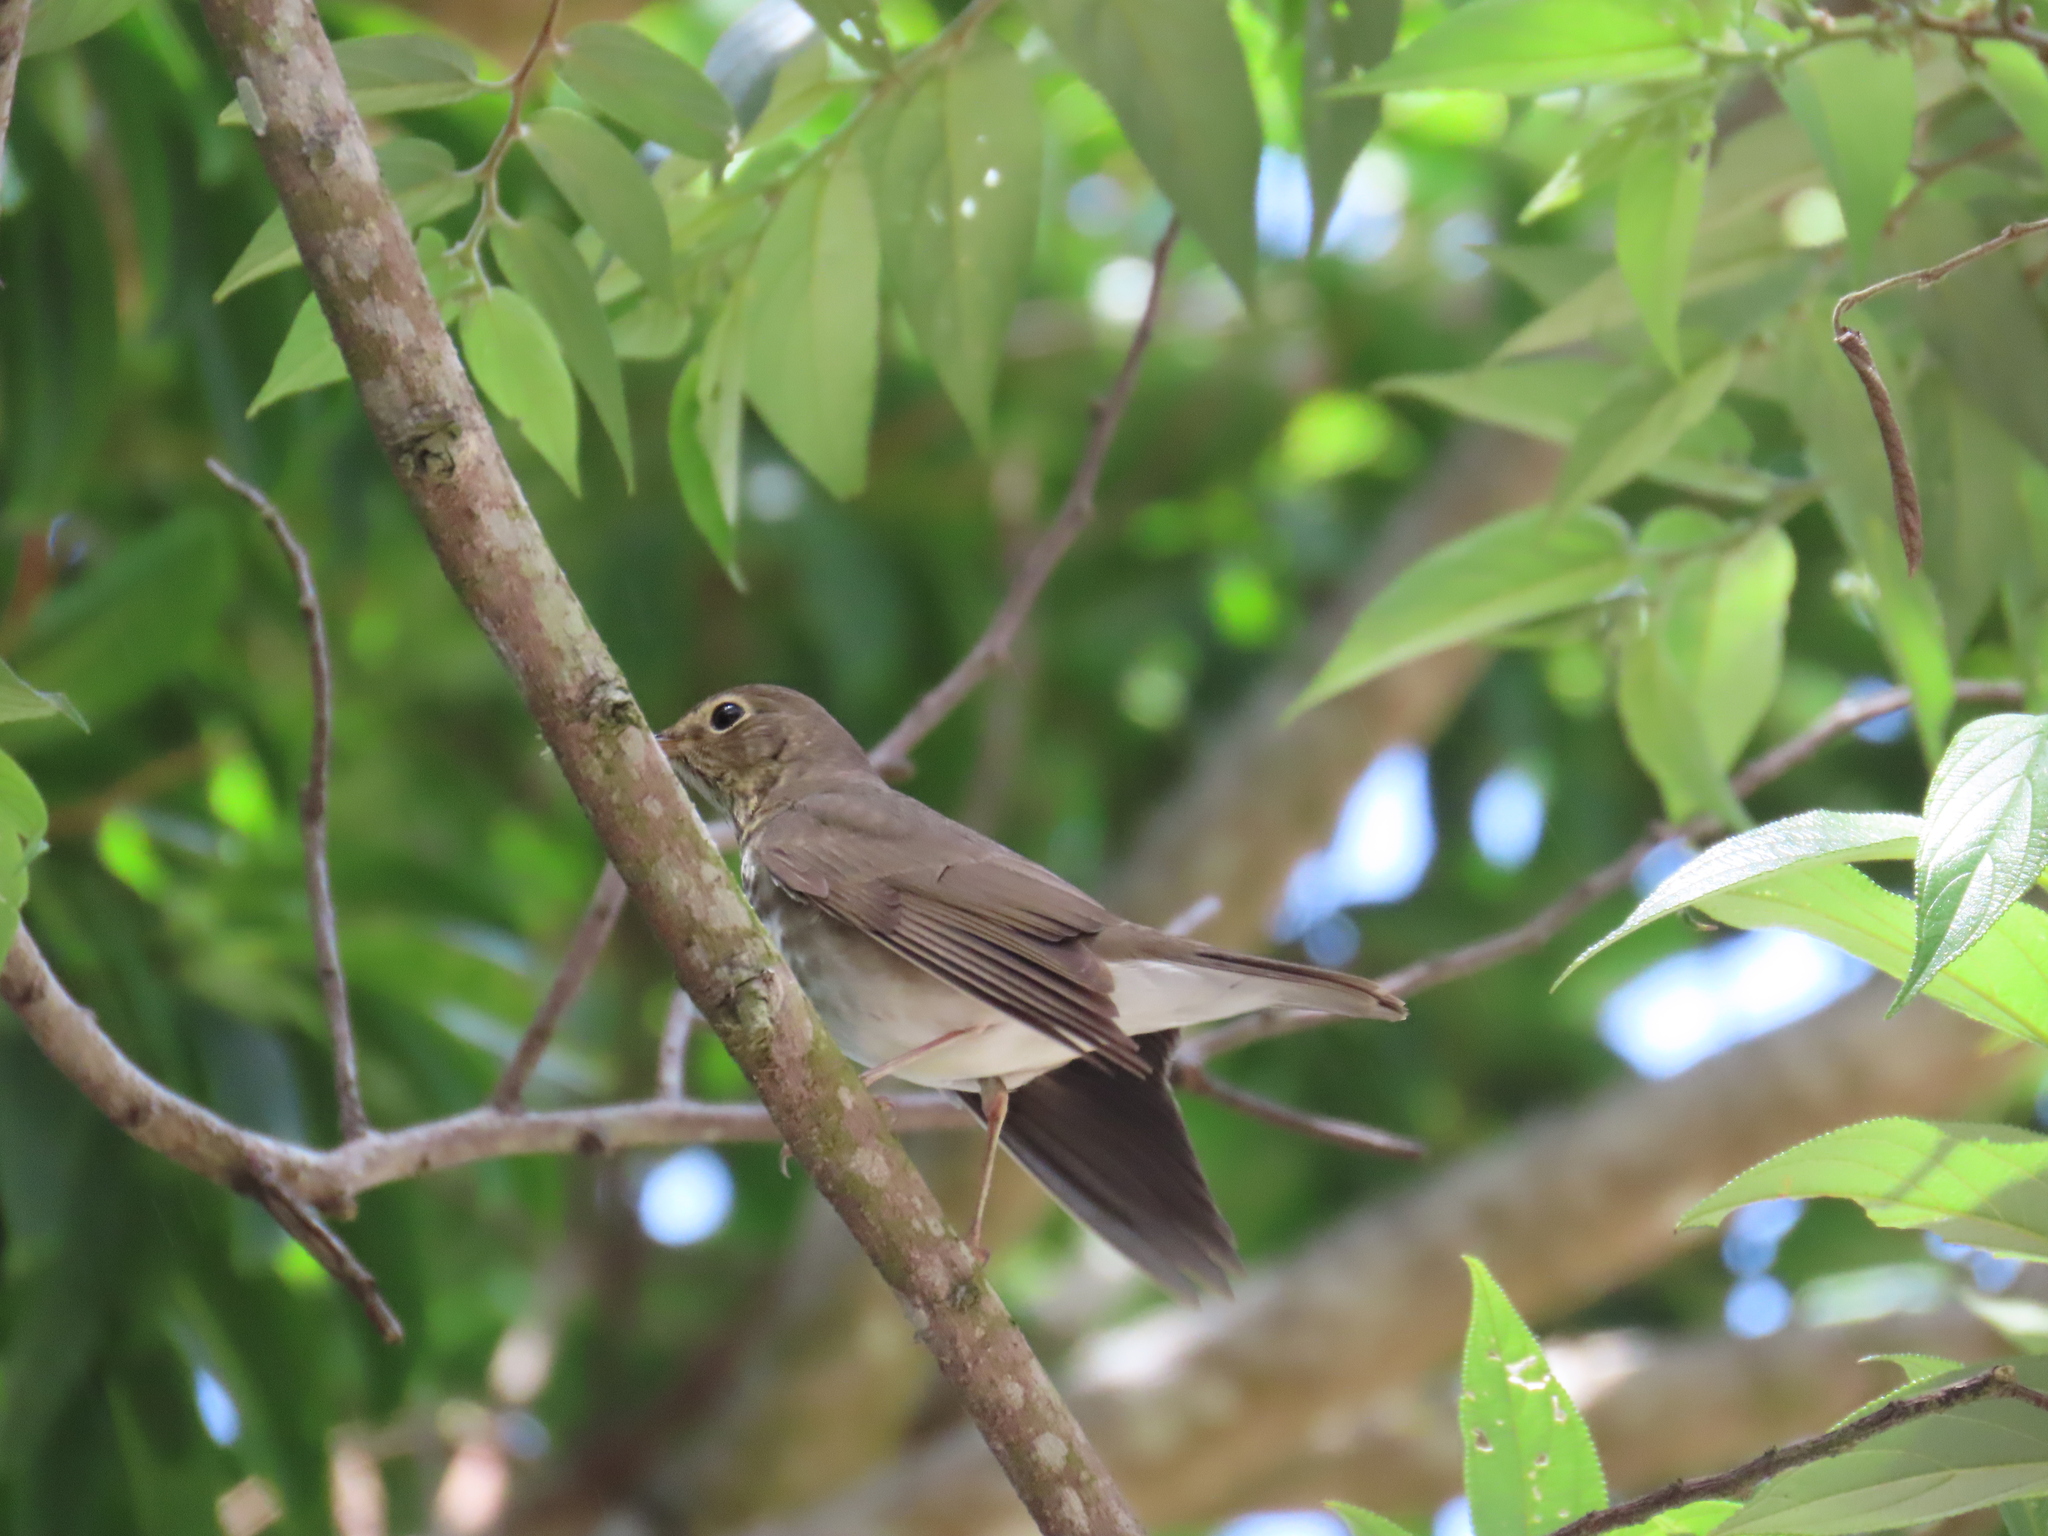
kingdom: Animalia
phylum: Chordata
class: Aves
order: Passeriformes
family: Turdidae
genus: Catharus
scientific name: Catharus ustulatus
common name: Swainson's thrush
